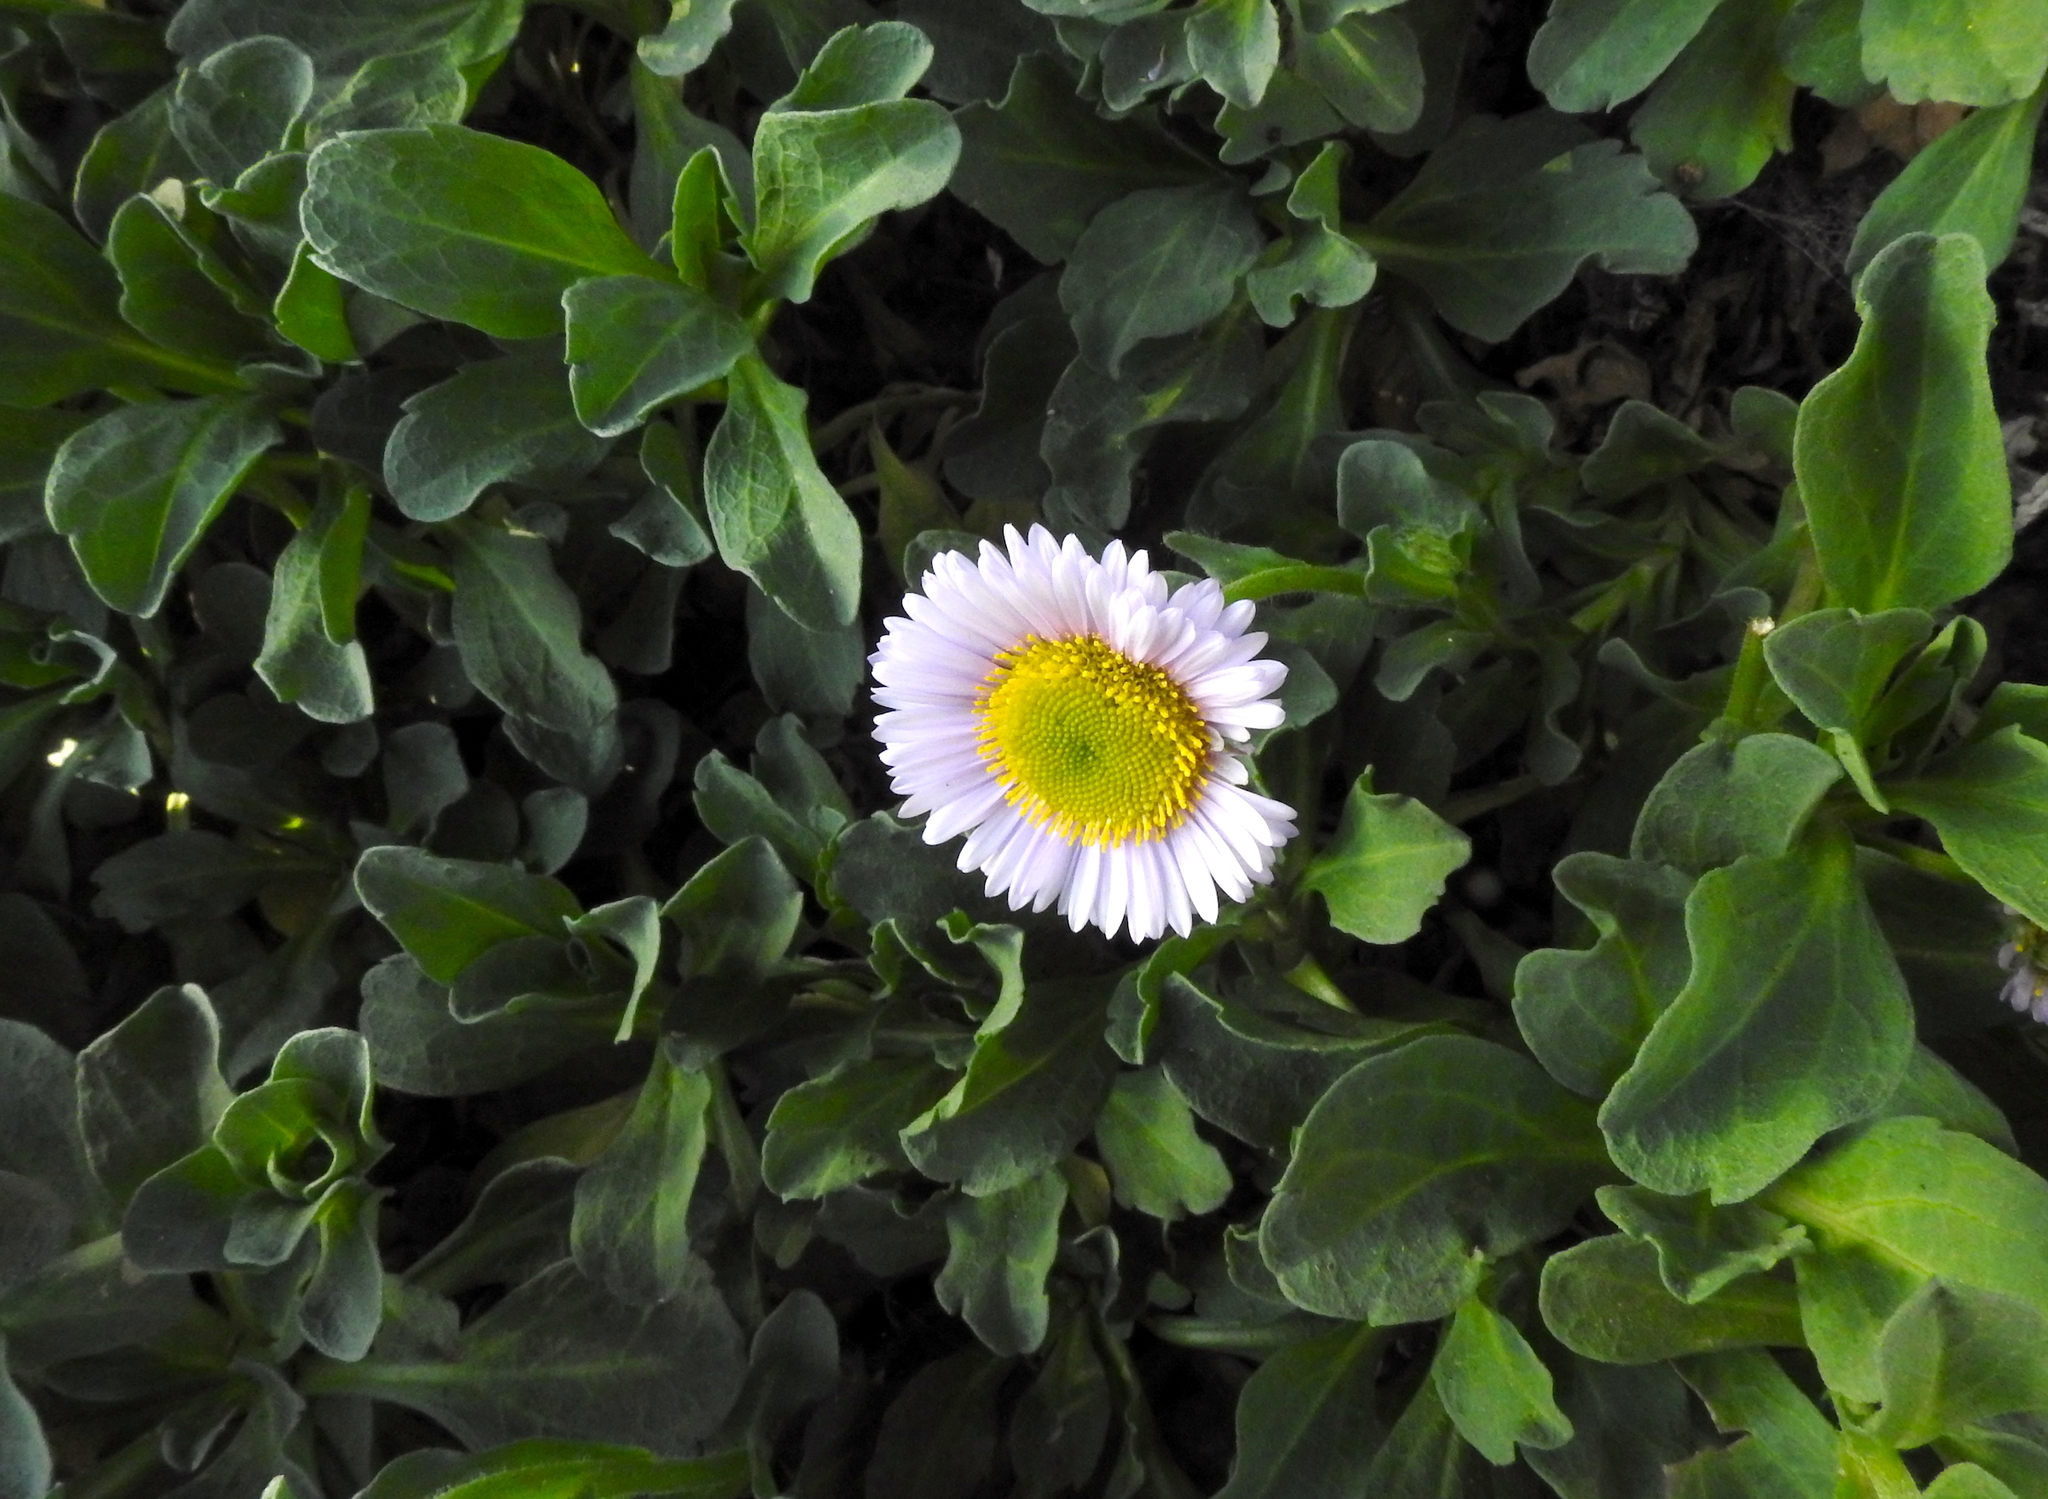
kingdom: Plantae
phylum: Tracheophyta
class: Magnoliopsida
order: Asterales
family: Asteraceae
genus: Erigeron
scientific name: Erigeron glaucus
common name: Seaside daisy
